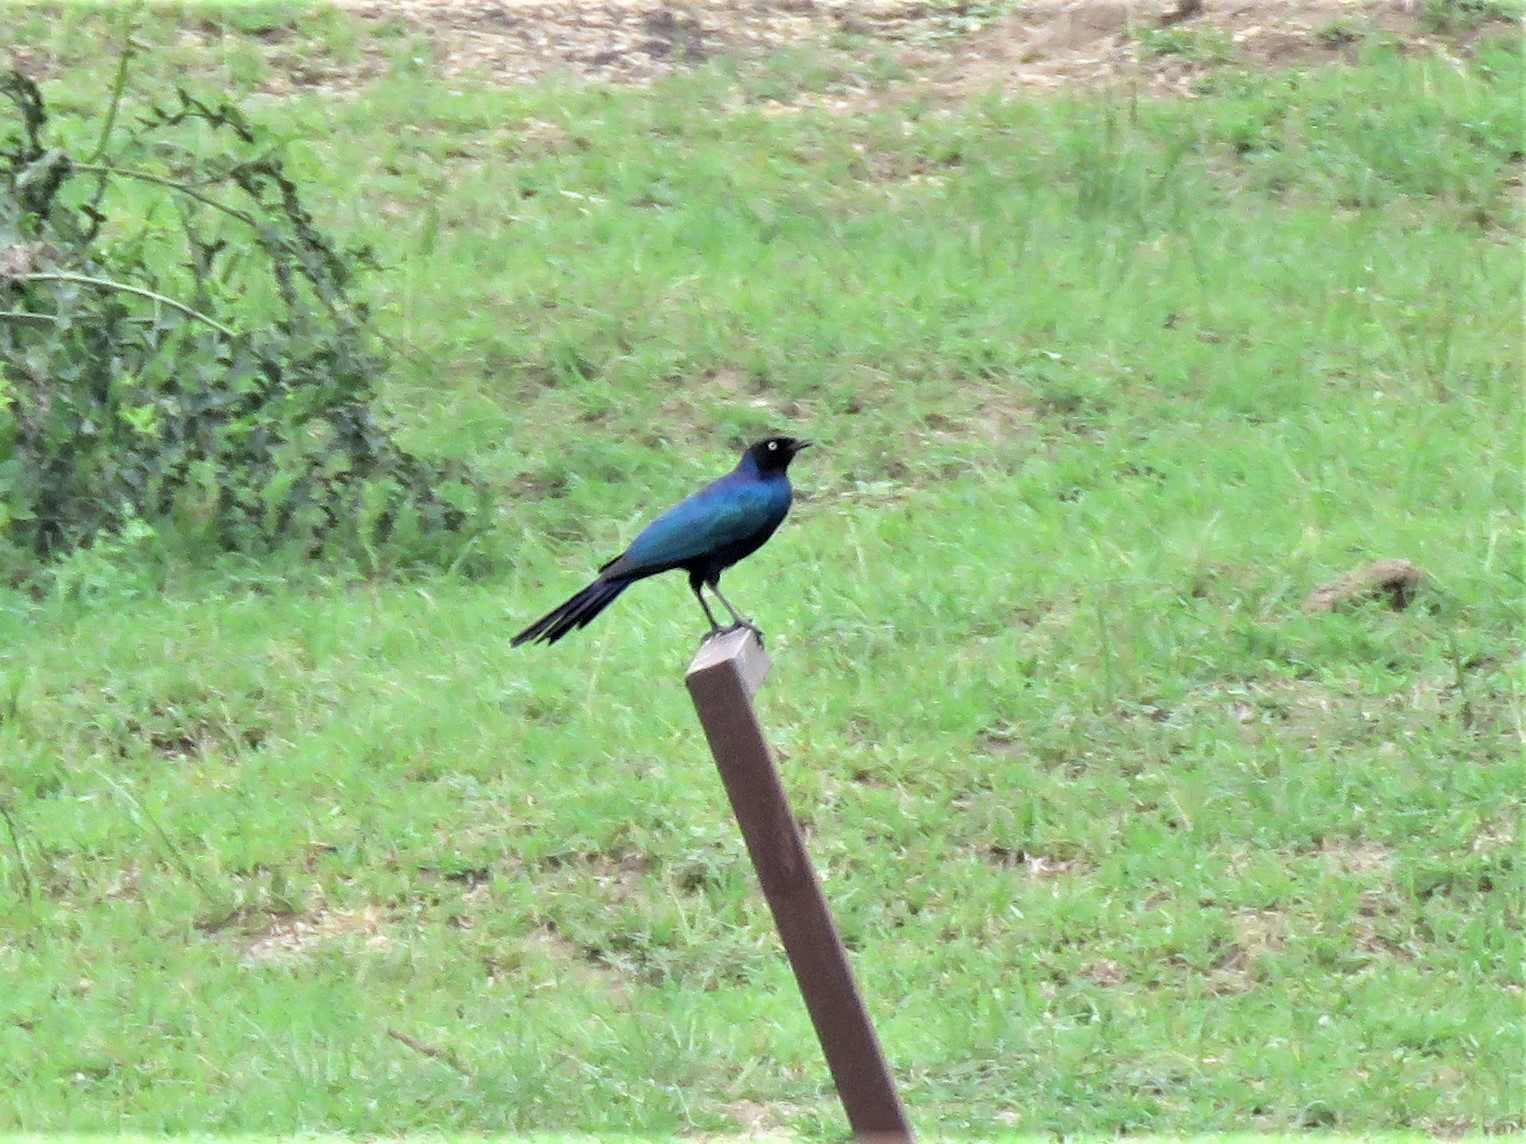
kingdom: Animalia
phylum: Chordata
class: Aves
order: Passeriformes
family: Sturnidae
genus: Lamprotornis
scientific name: Lamprotornis purpuroptera
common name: Rüppell's starling
